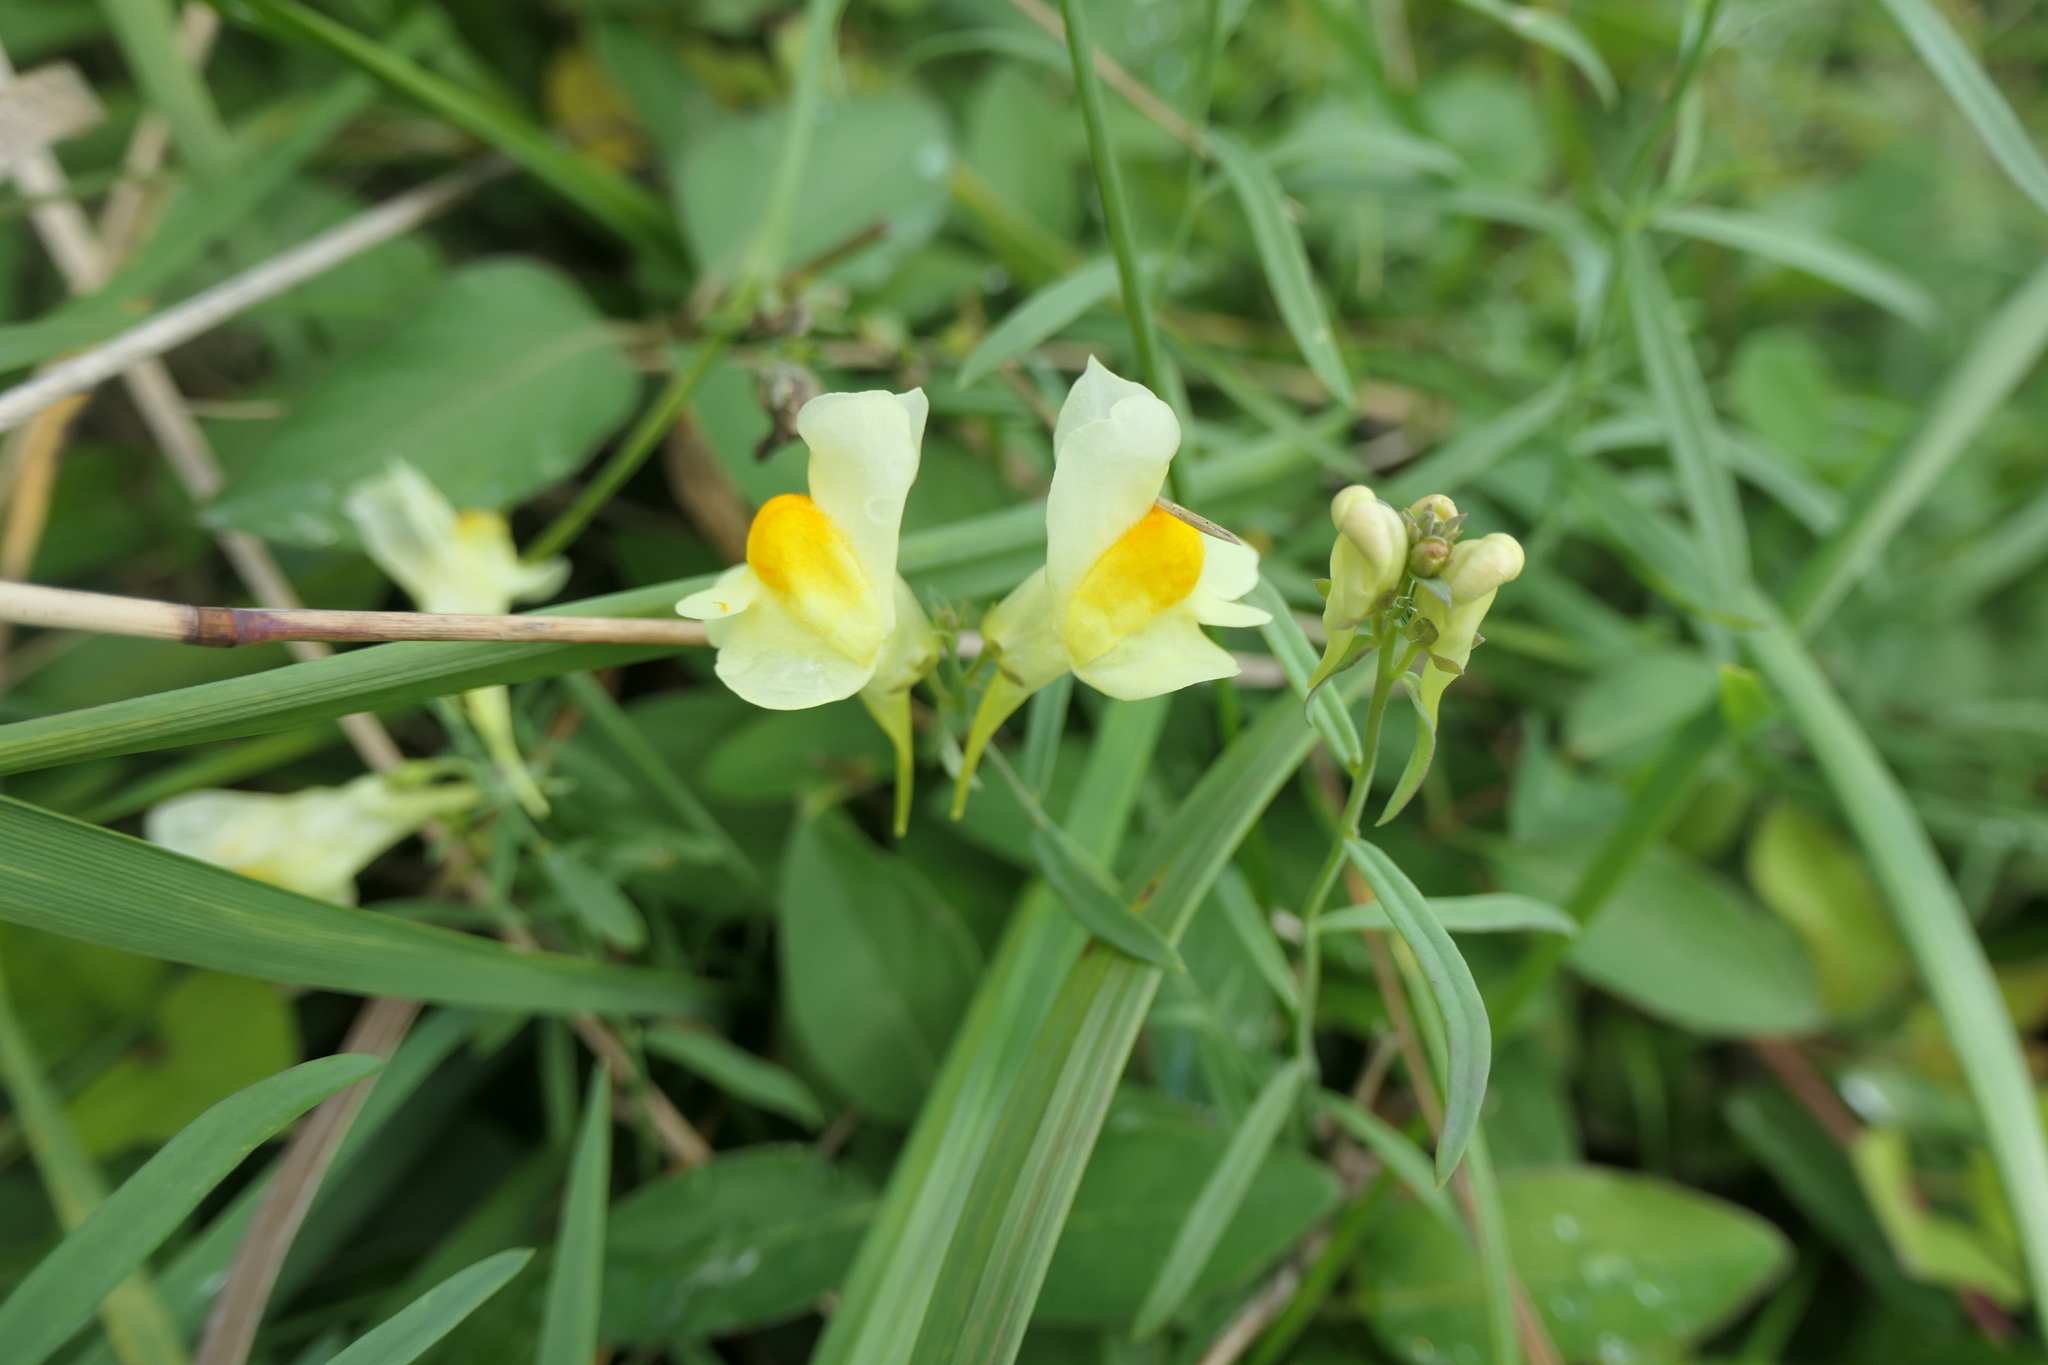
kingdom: Plantae
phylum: Tracheophyta
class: Magnoliopsida
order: Lamiales
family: Plantaginaceae
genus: Linaria
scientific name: Linaria vulgaris
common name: Butter and eggs
